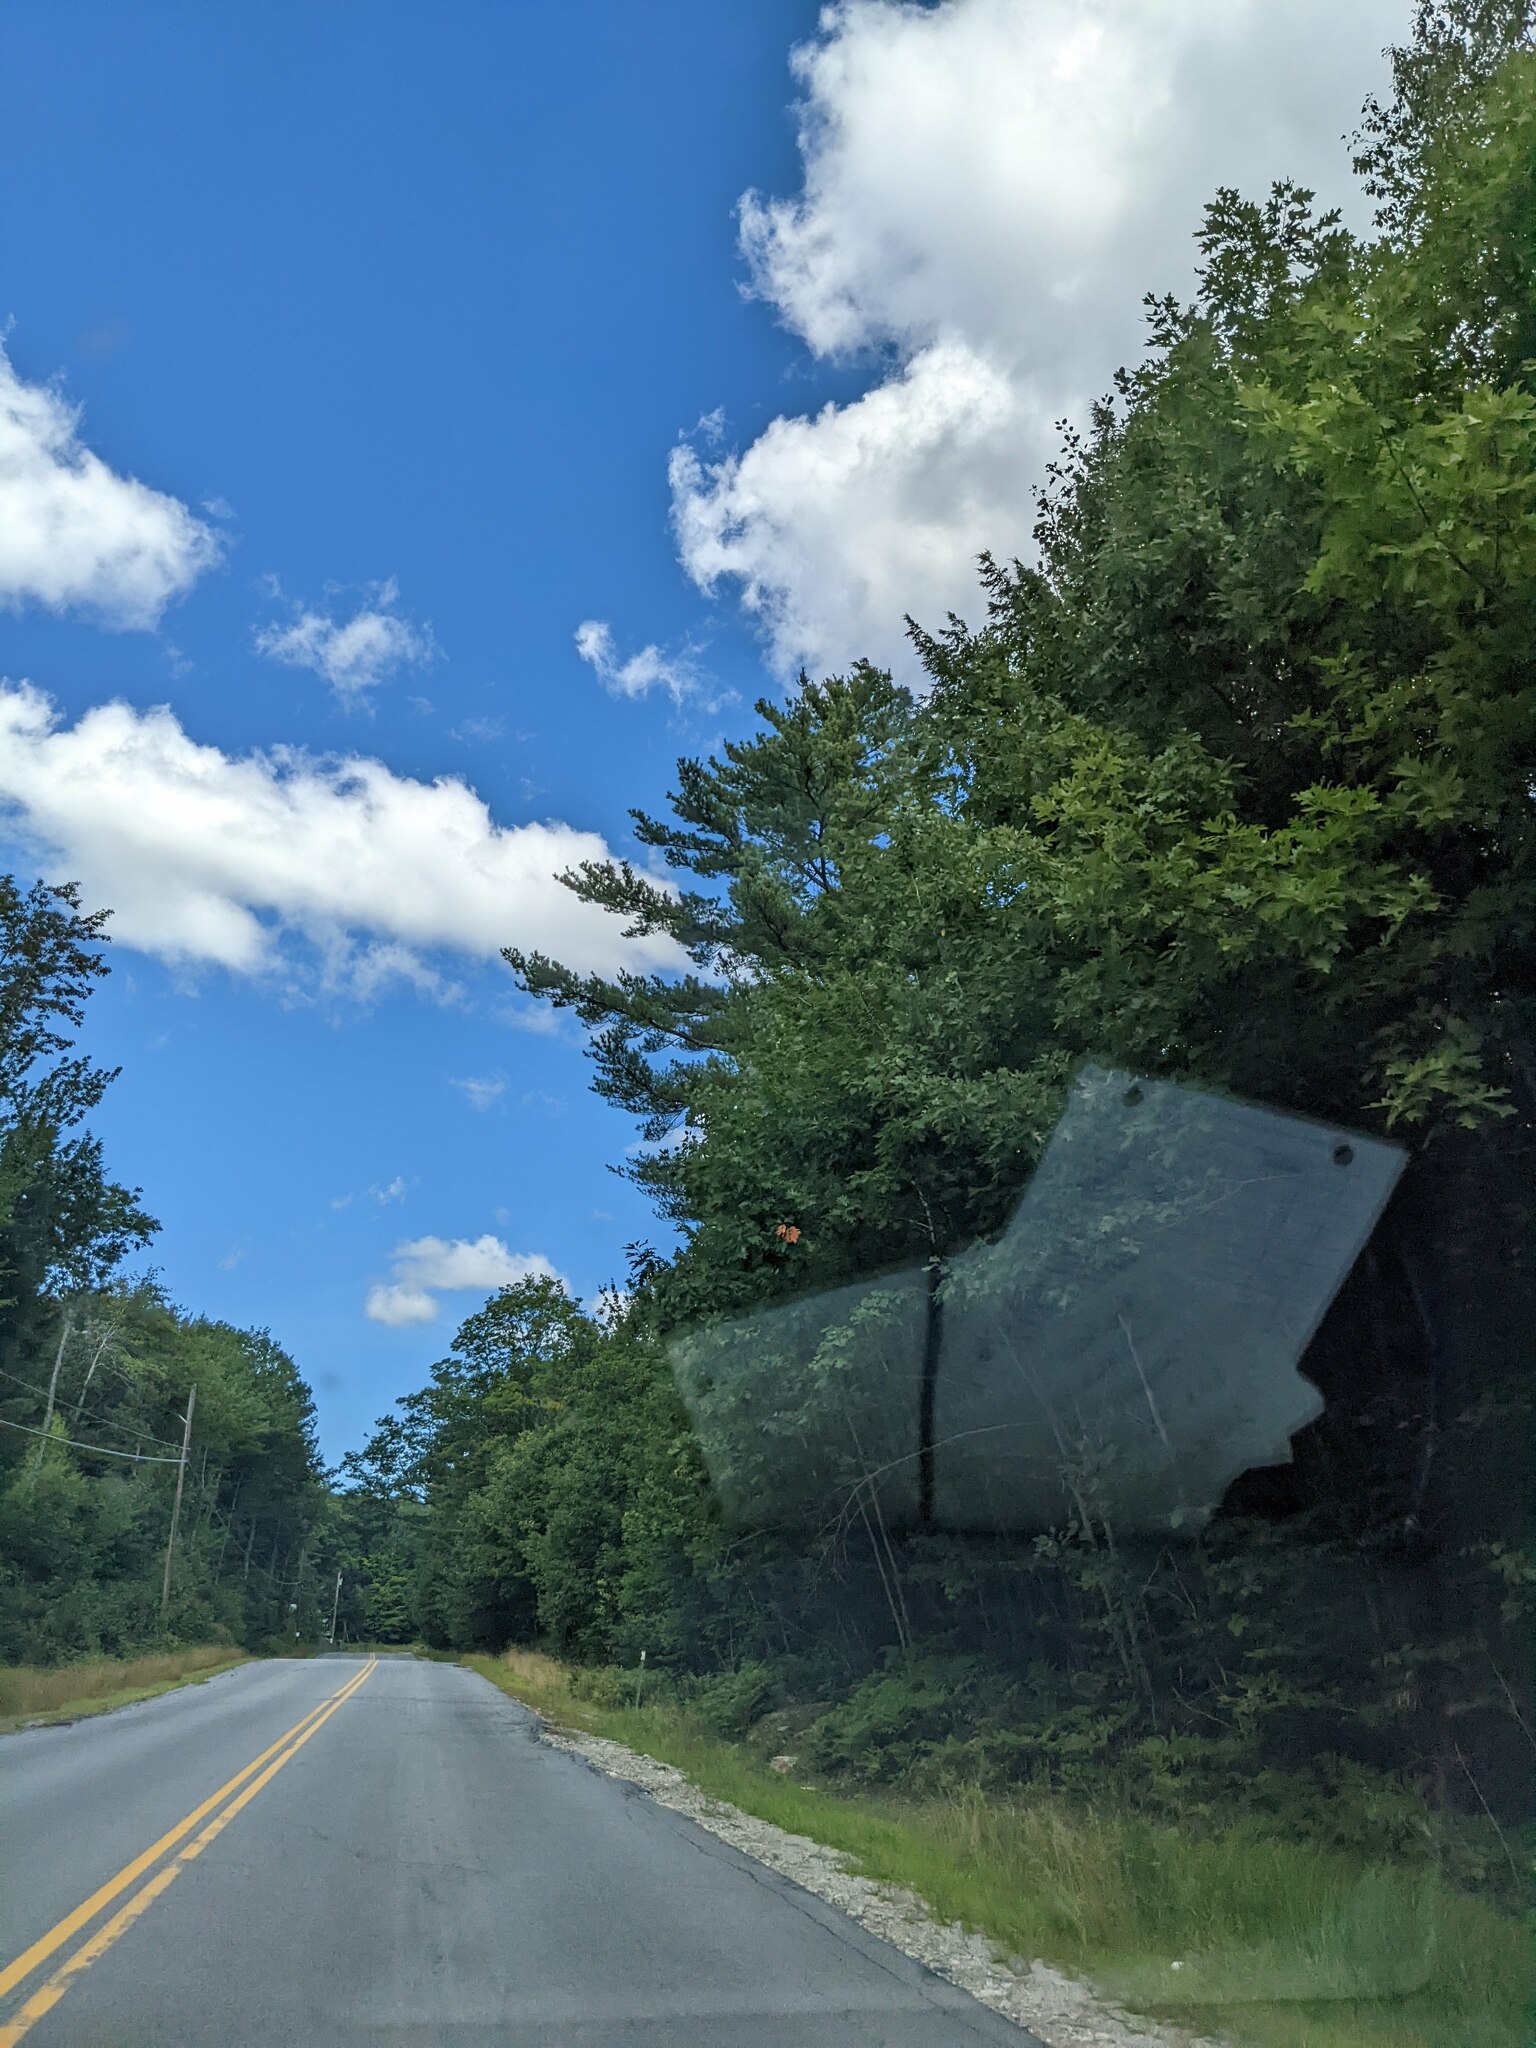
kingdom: Plantae
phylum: Tracheophyta
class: Pinopsida
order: Pinales
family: Pinaceae
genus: Pinus
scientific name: Pinus strobus
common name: Weymouth pine
